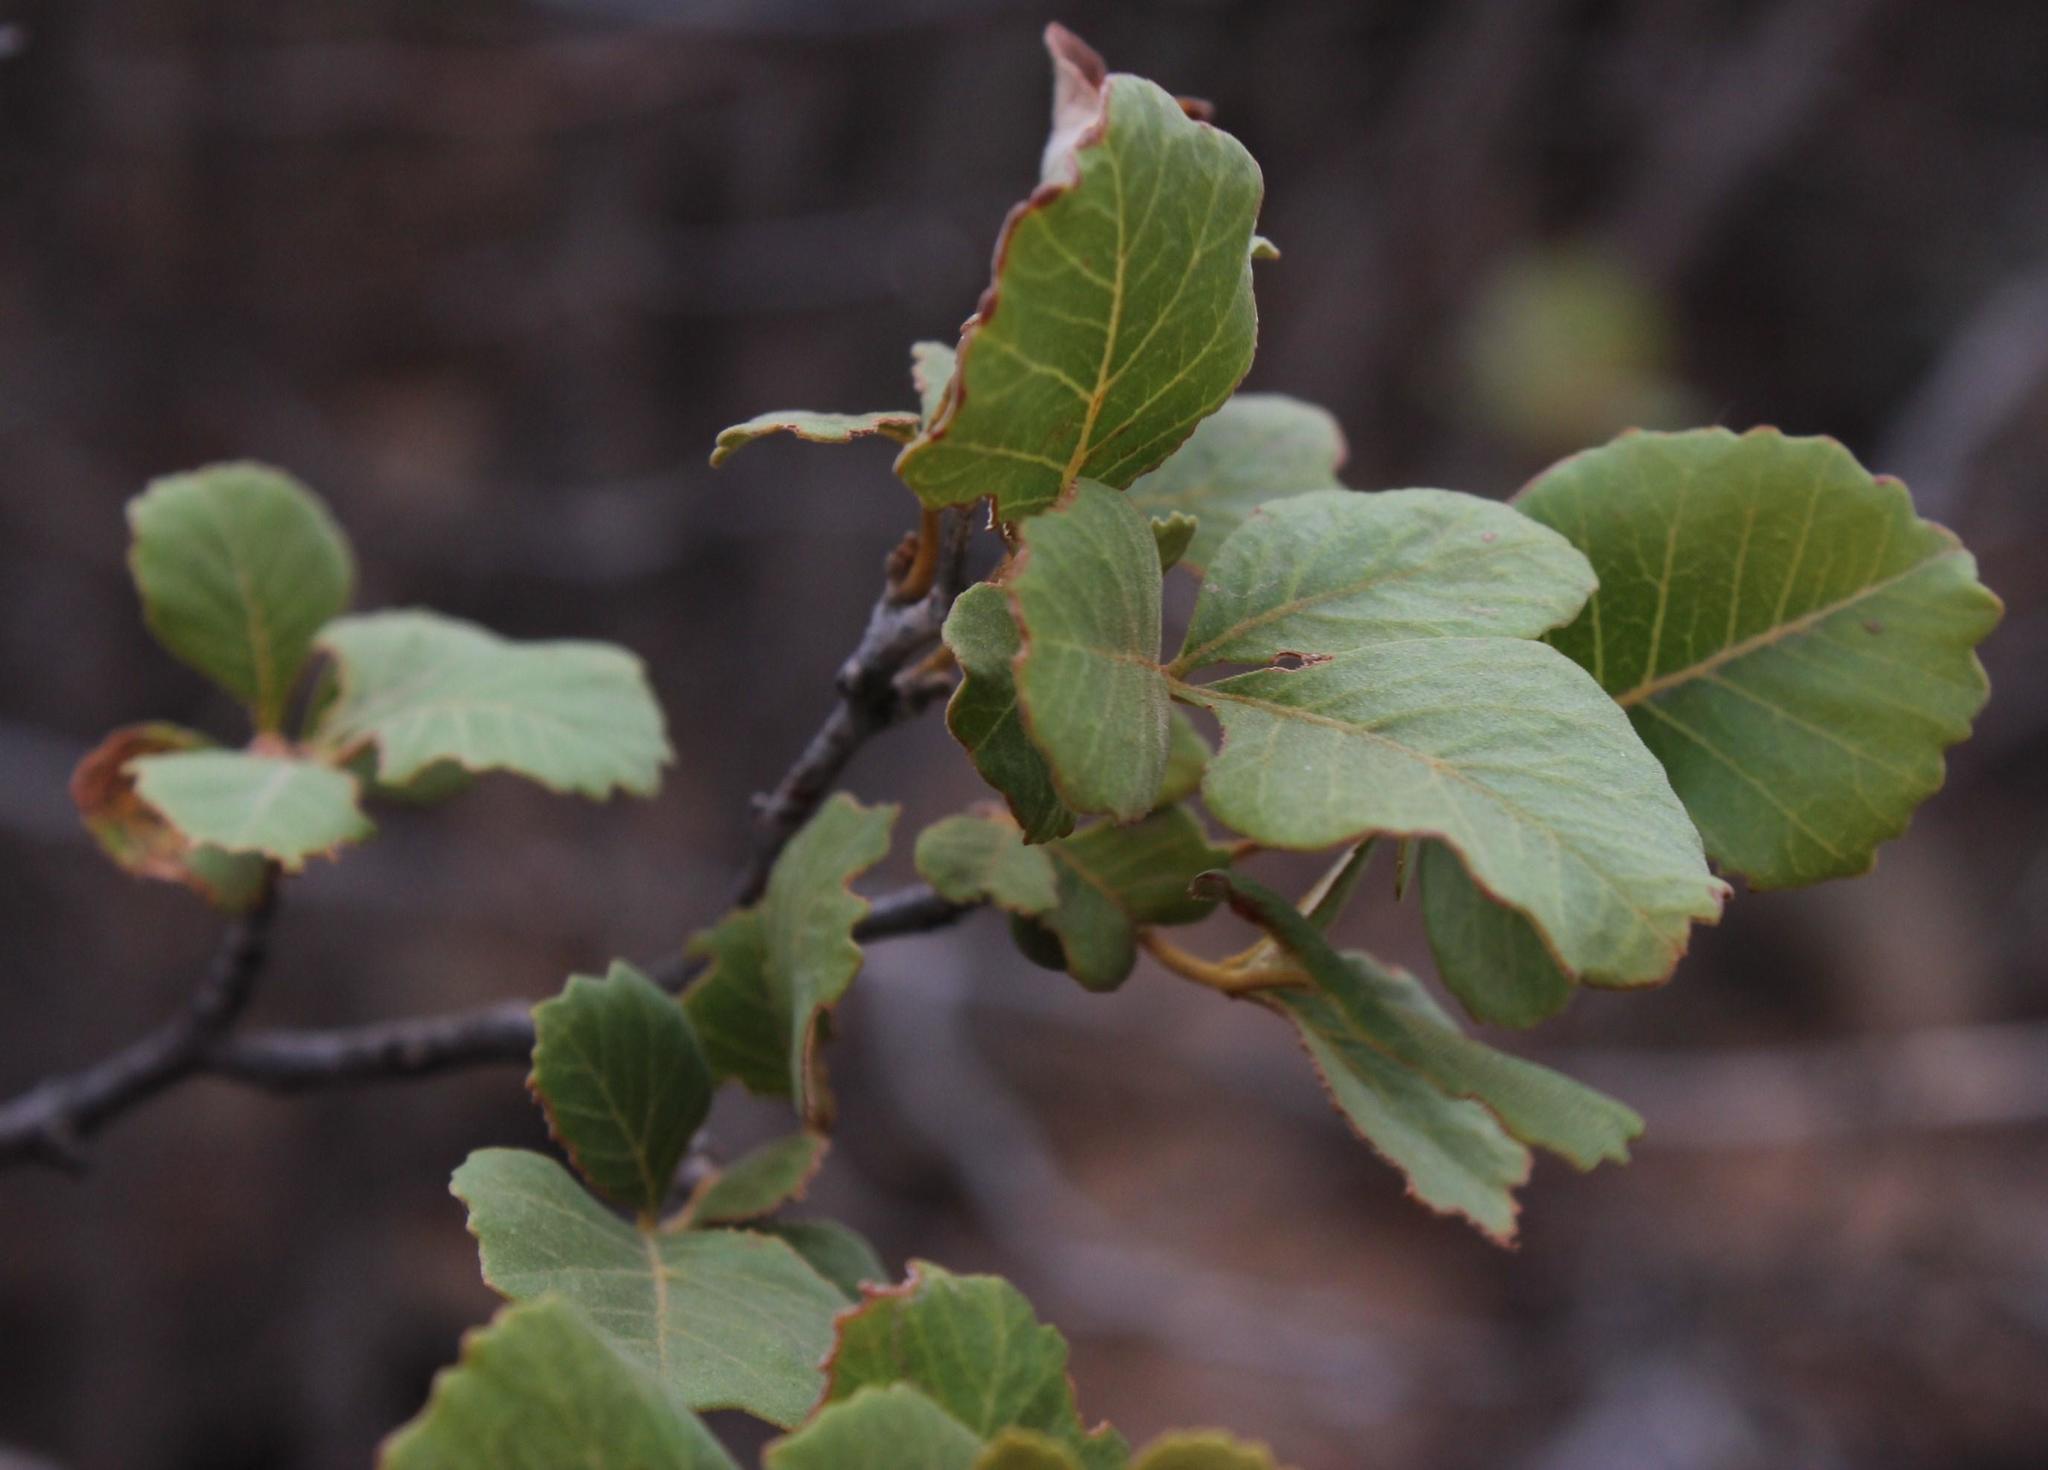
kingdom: Plantae
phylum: Tracheophyta
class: Magnoliopsida
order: Sapindales
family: Anacardiaceae
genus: Searsia
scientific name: Searsia populifolia
